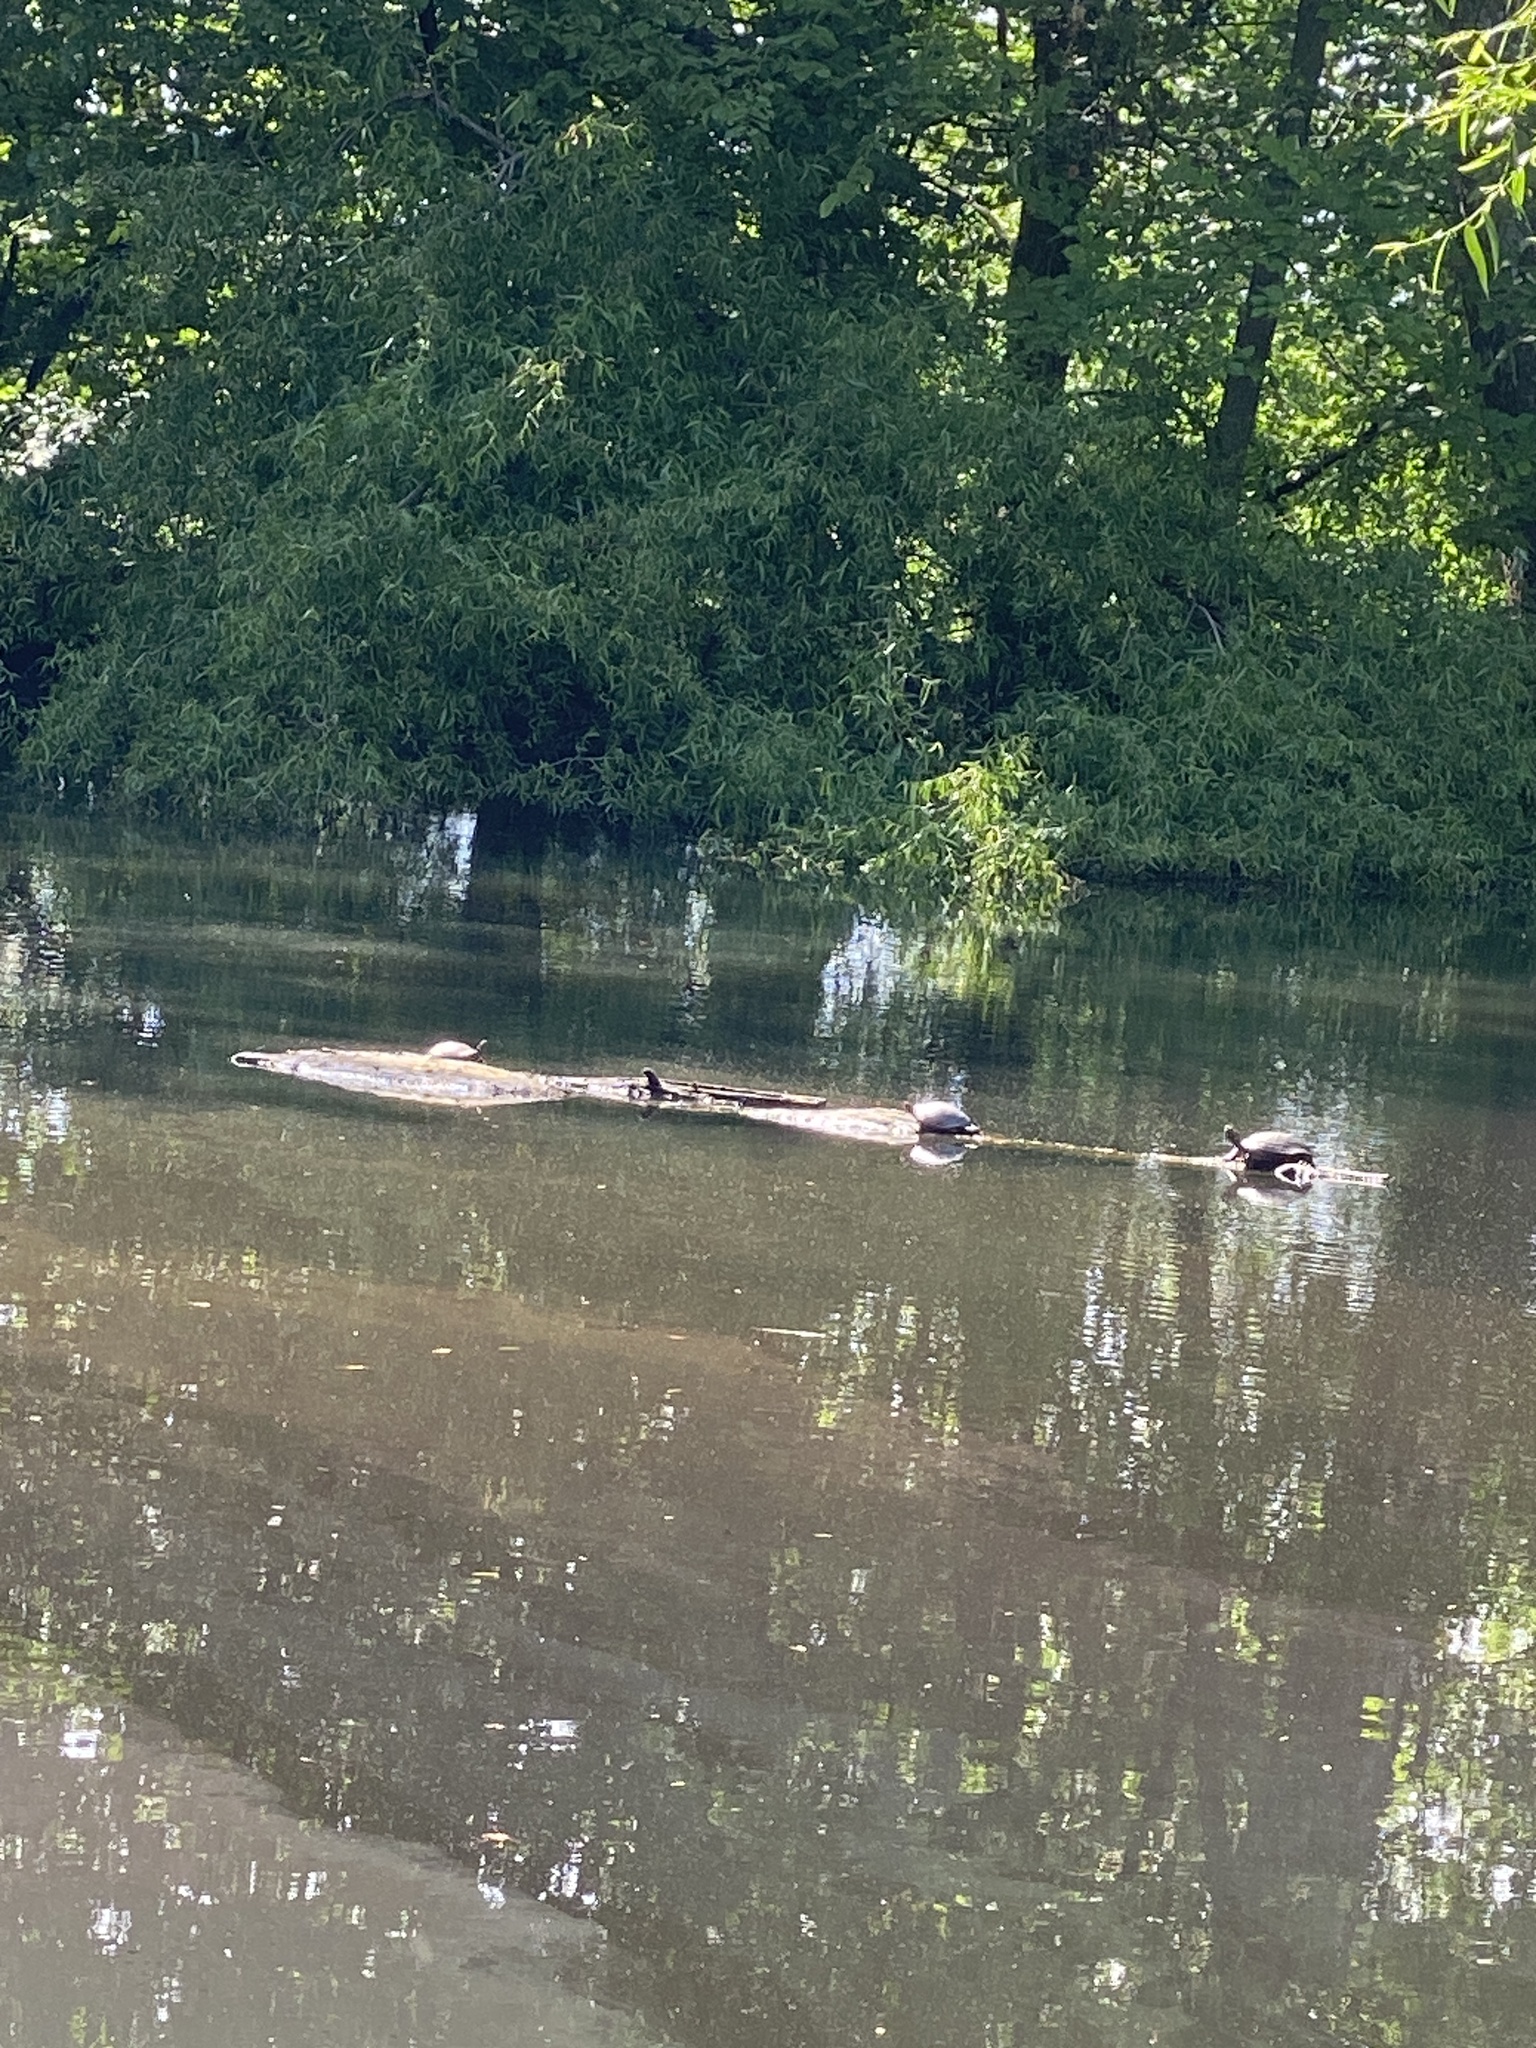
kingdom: Animalia
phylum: Chordata
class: Testudines
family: Emydidae
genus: Chrysemys
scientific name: Chrysemys picta
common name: Painted turtle
